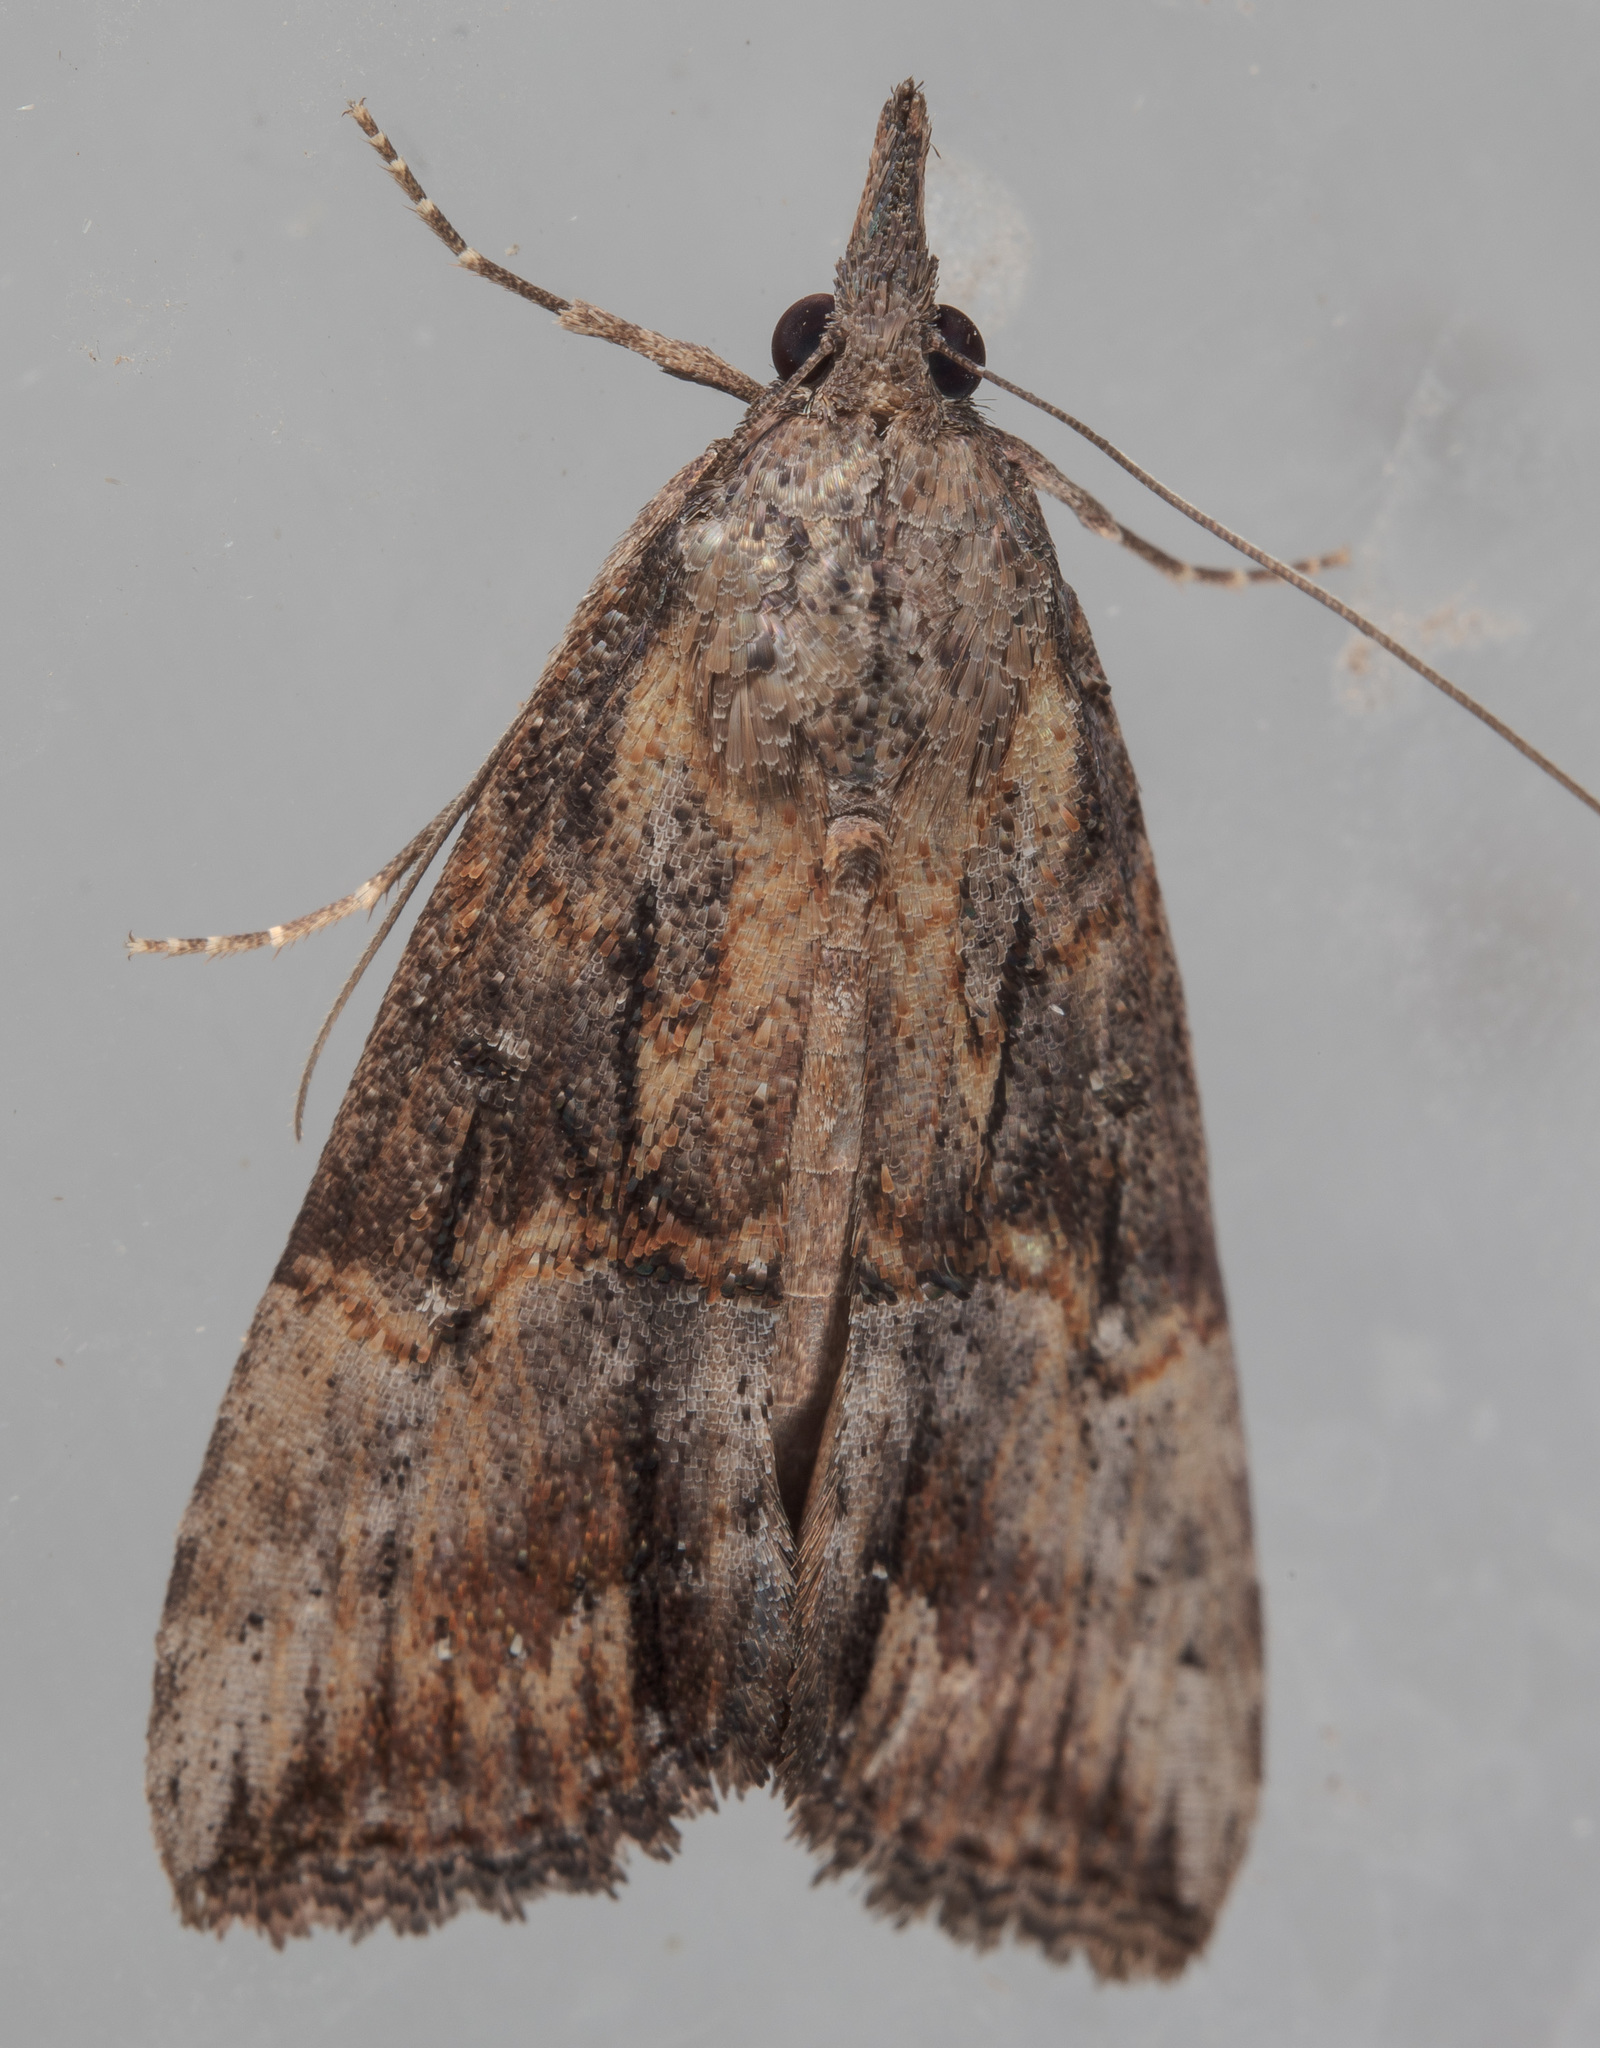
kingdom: Animalia
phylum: Arthropoda
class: Insecta
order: Lepidoptera
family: Erebidae
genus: Hypena
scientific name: Hypena scabra
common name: Green cloverworm
